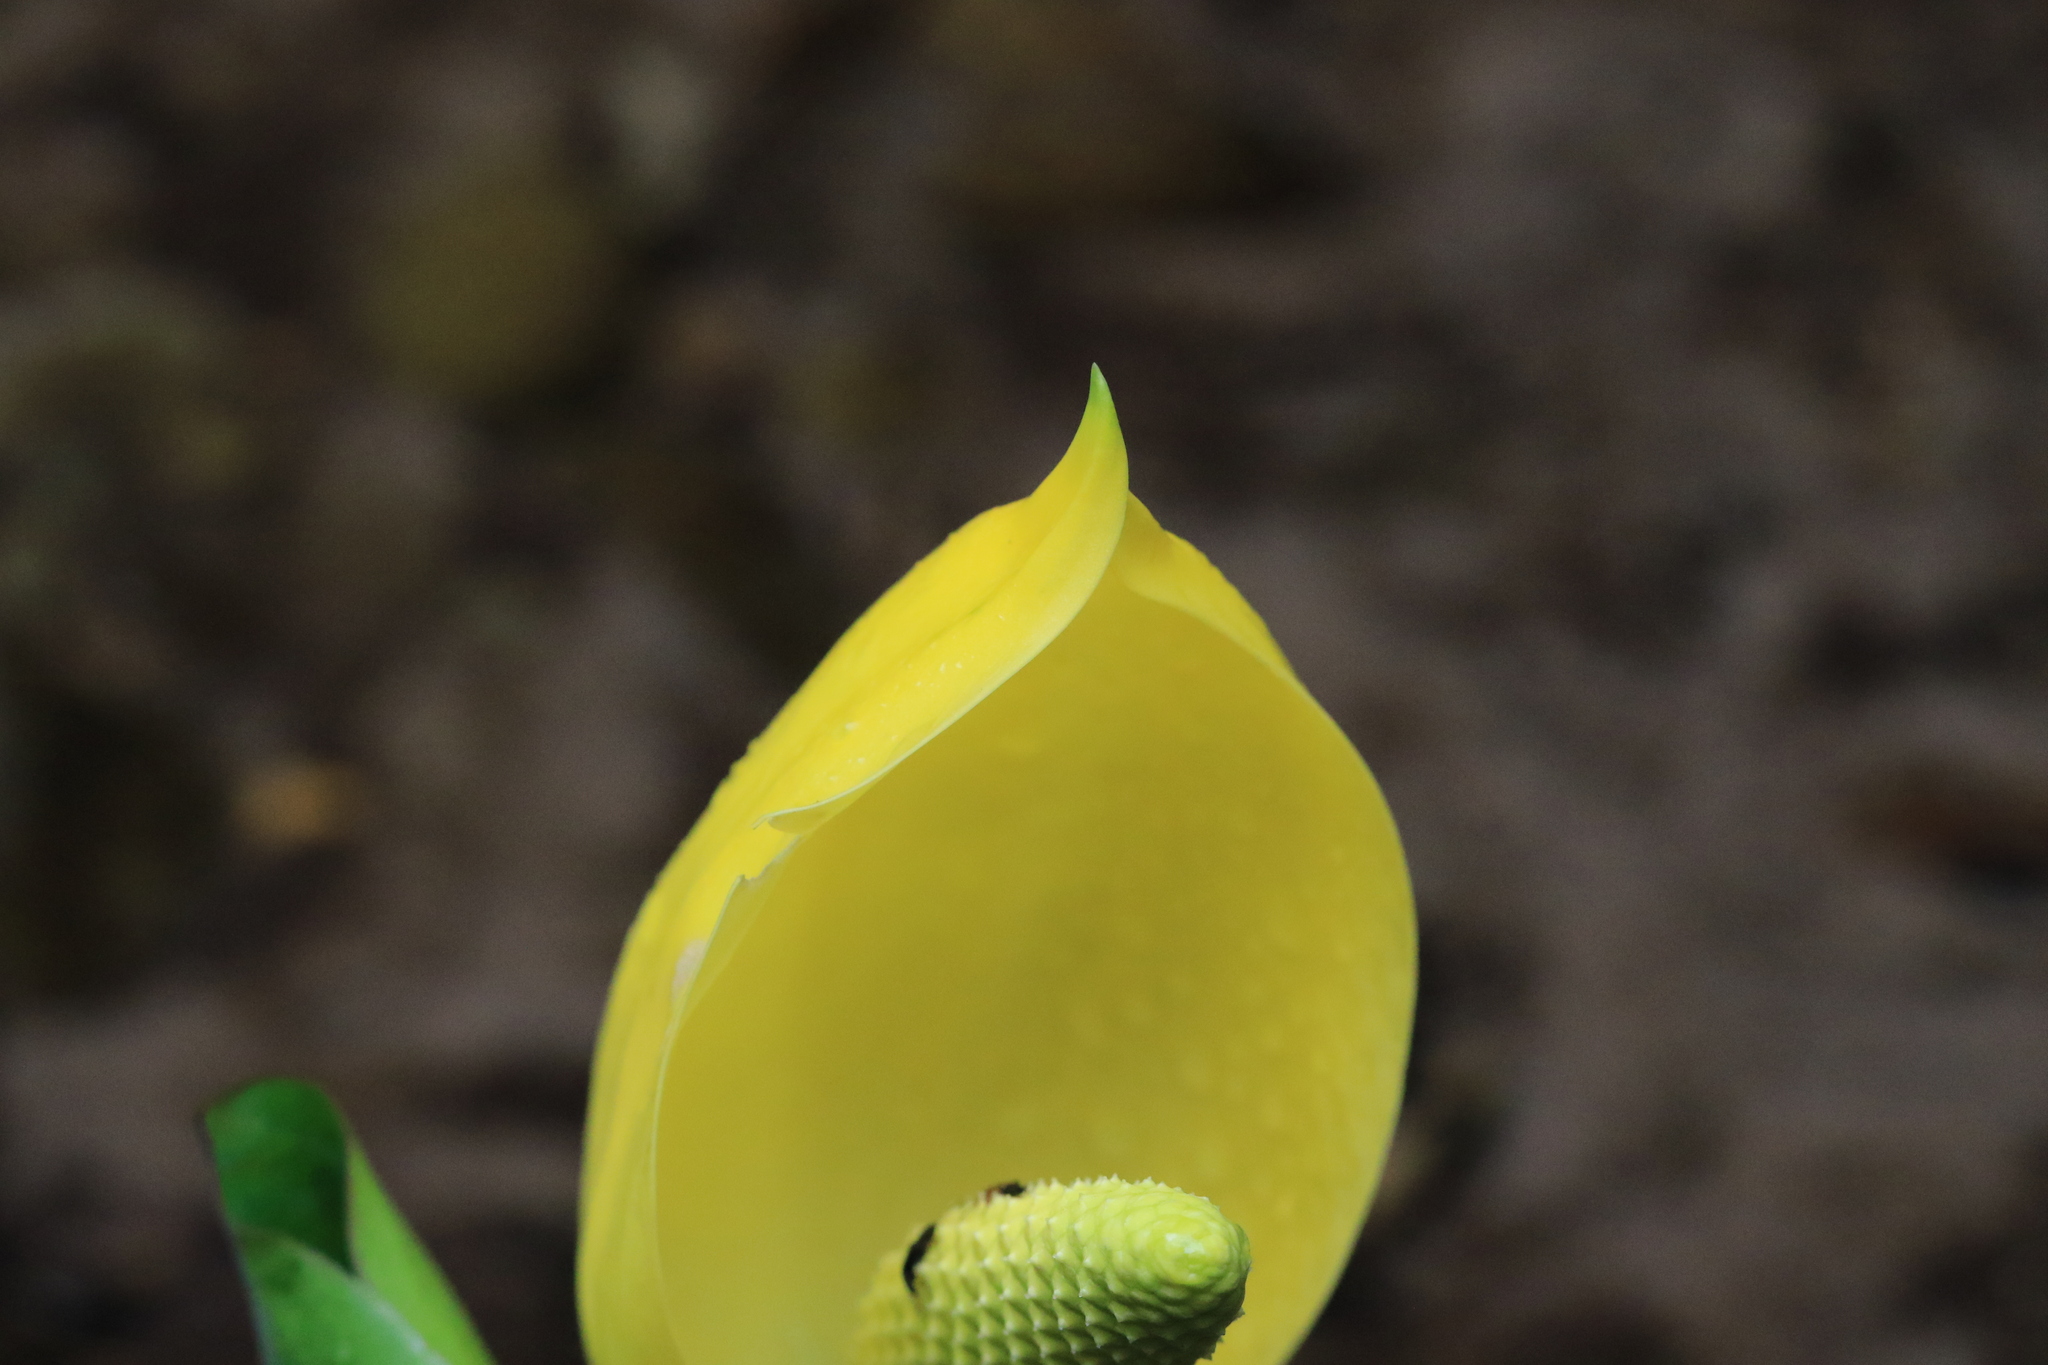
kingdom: Plantae
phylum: Tracheophyta
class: Liliopsida
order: Alismatales
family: Araceae
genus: Lysichiton
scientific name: Lysichiton americanus
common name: American skunk cabbage
